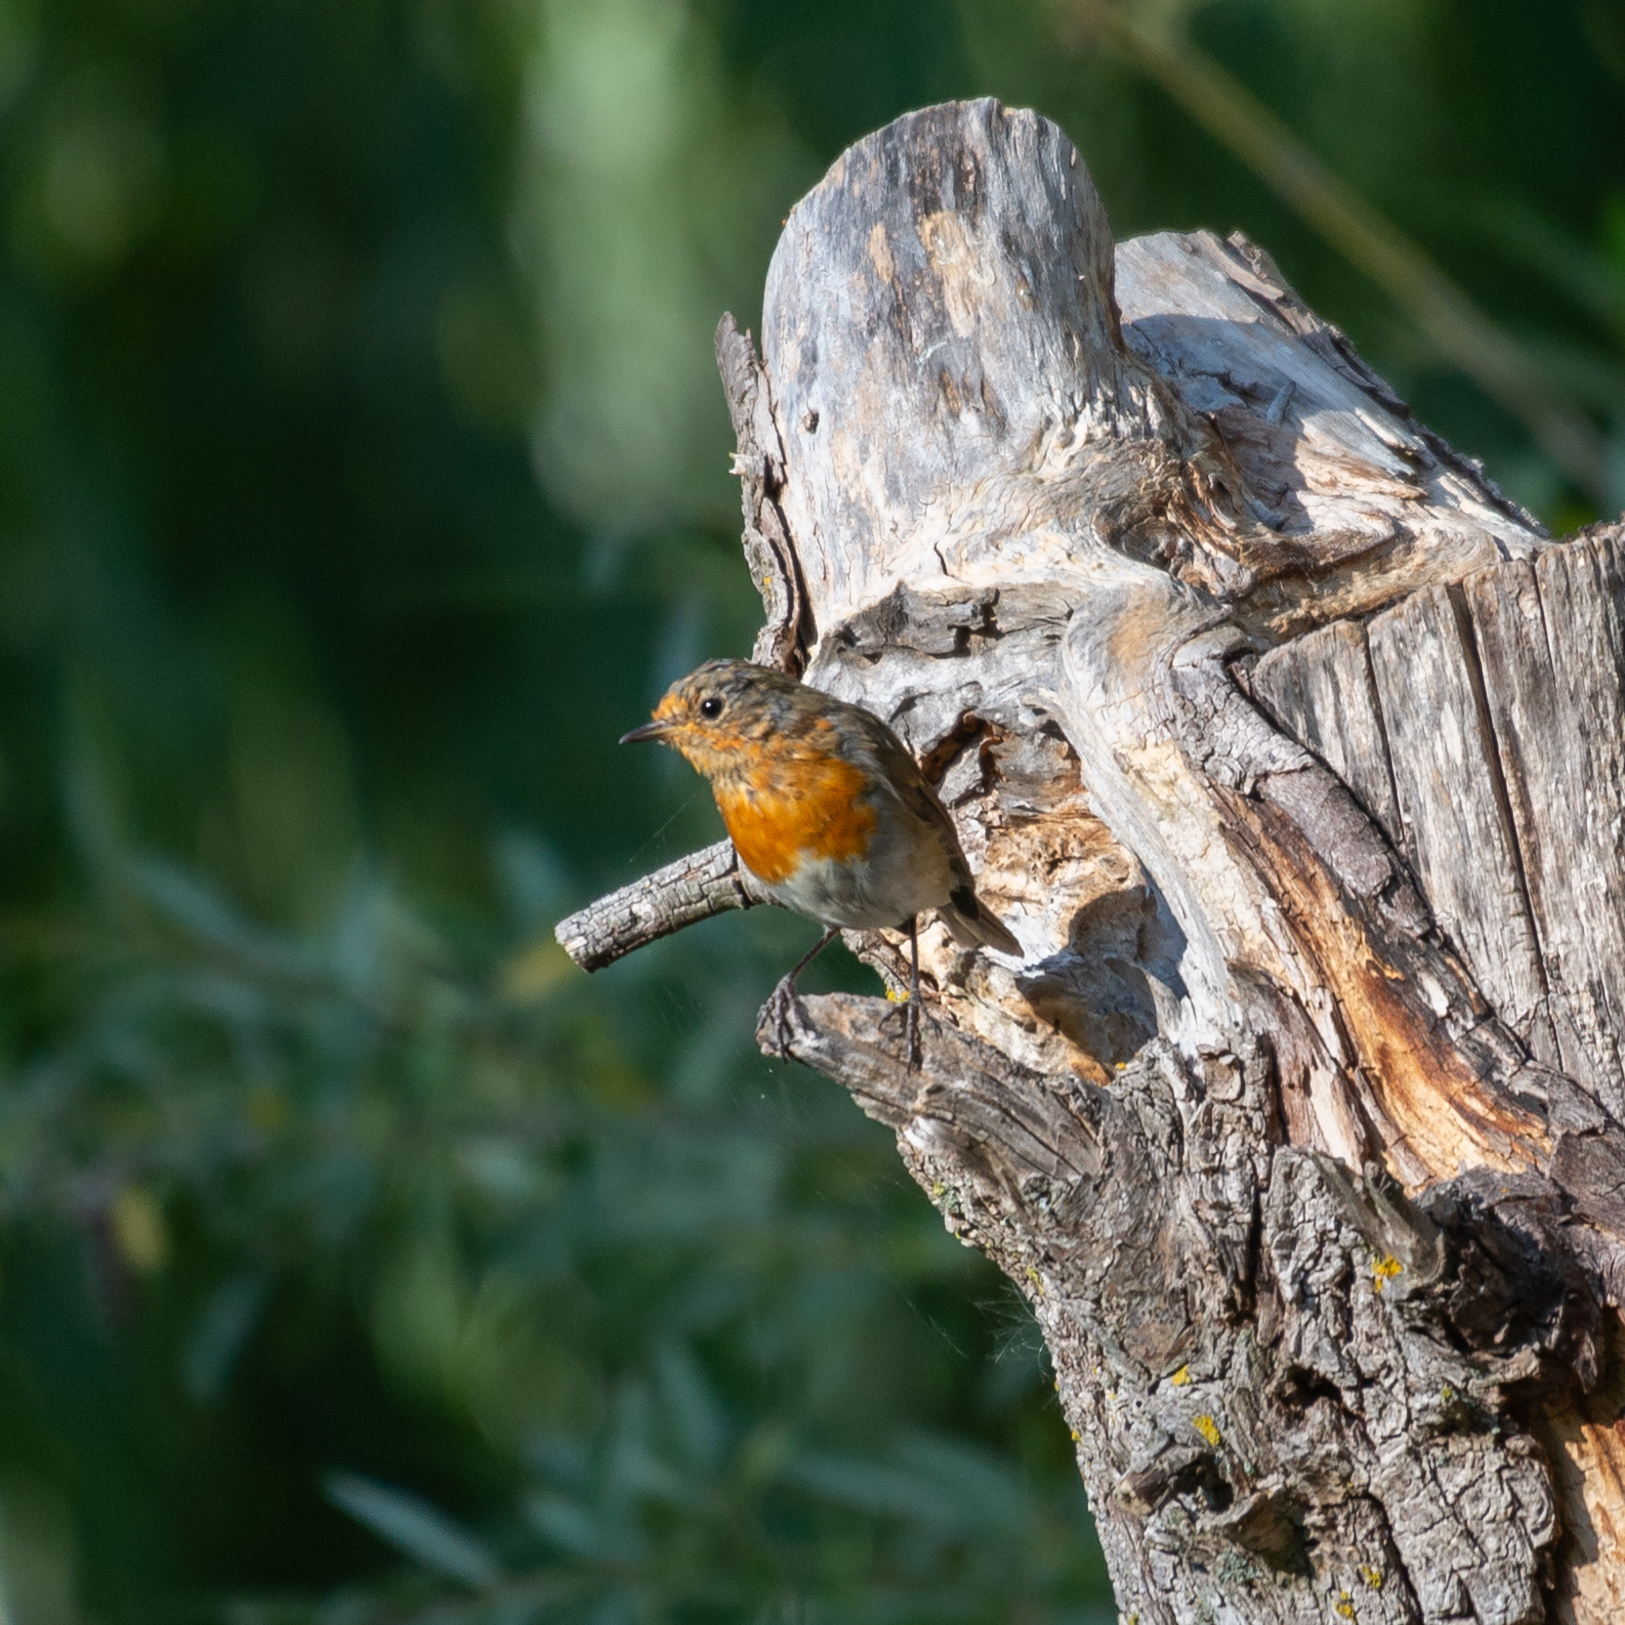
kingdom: Animalia
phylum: Chordata
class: Aves
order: Passeriformes
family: Muscicapidae
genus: Erithacus
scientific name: Erithacus rubecula
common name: European robin
